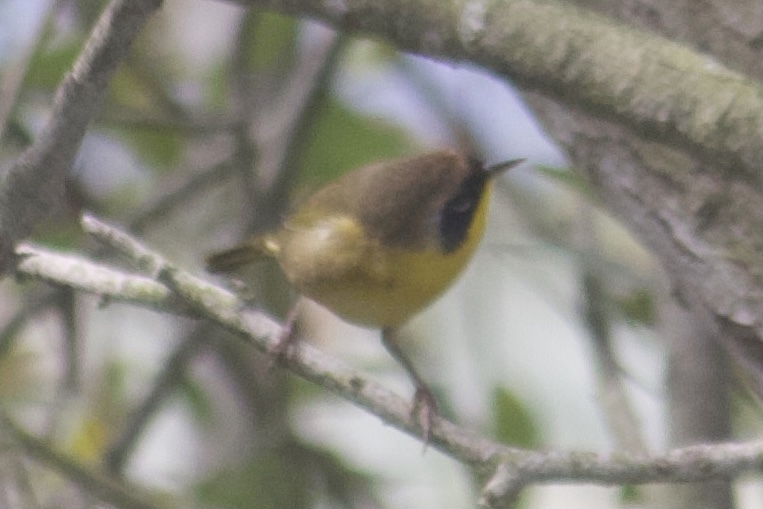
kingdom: Animalia
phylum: Chordata
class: Aves
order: Passeriformes
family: Parulidae
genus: Geothlypis
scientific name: Geothlypis trichas
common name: Common yellowthroat
